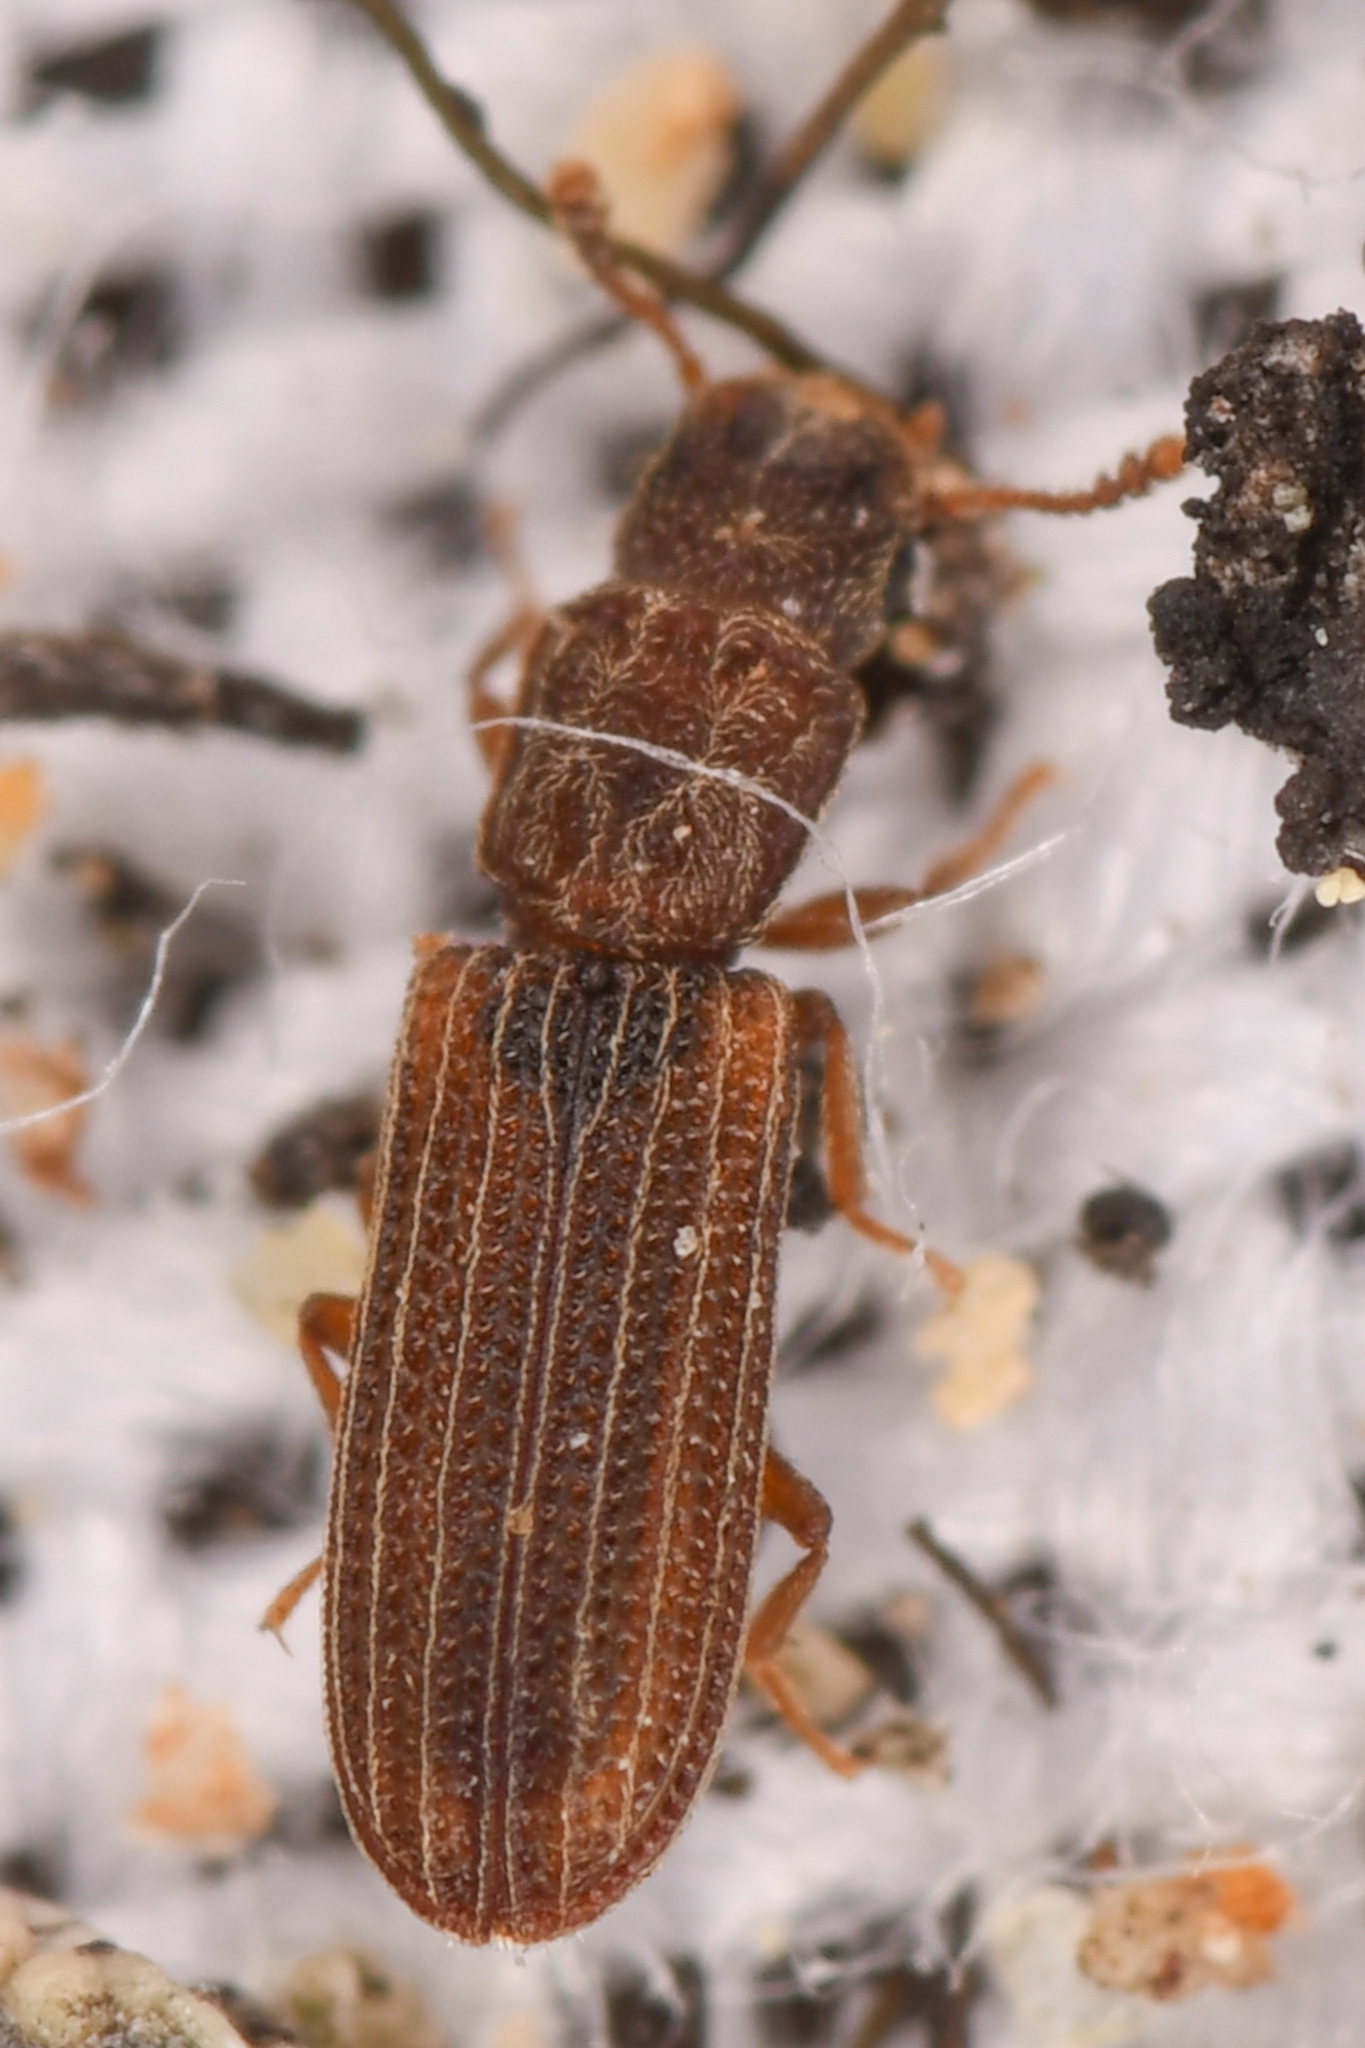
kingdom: Animalia
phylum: Arthropoda
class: Insecta
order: Coleoptera
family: Zopheridae
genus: Lasconotus
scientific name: Lasconotus intricatus
